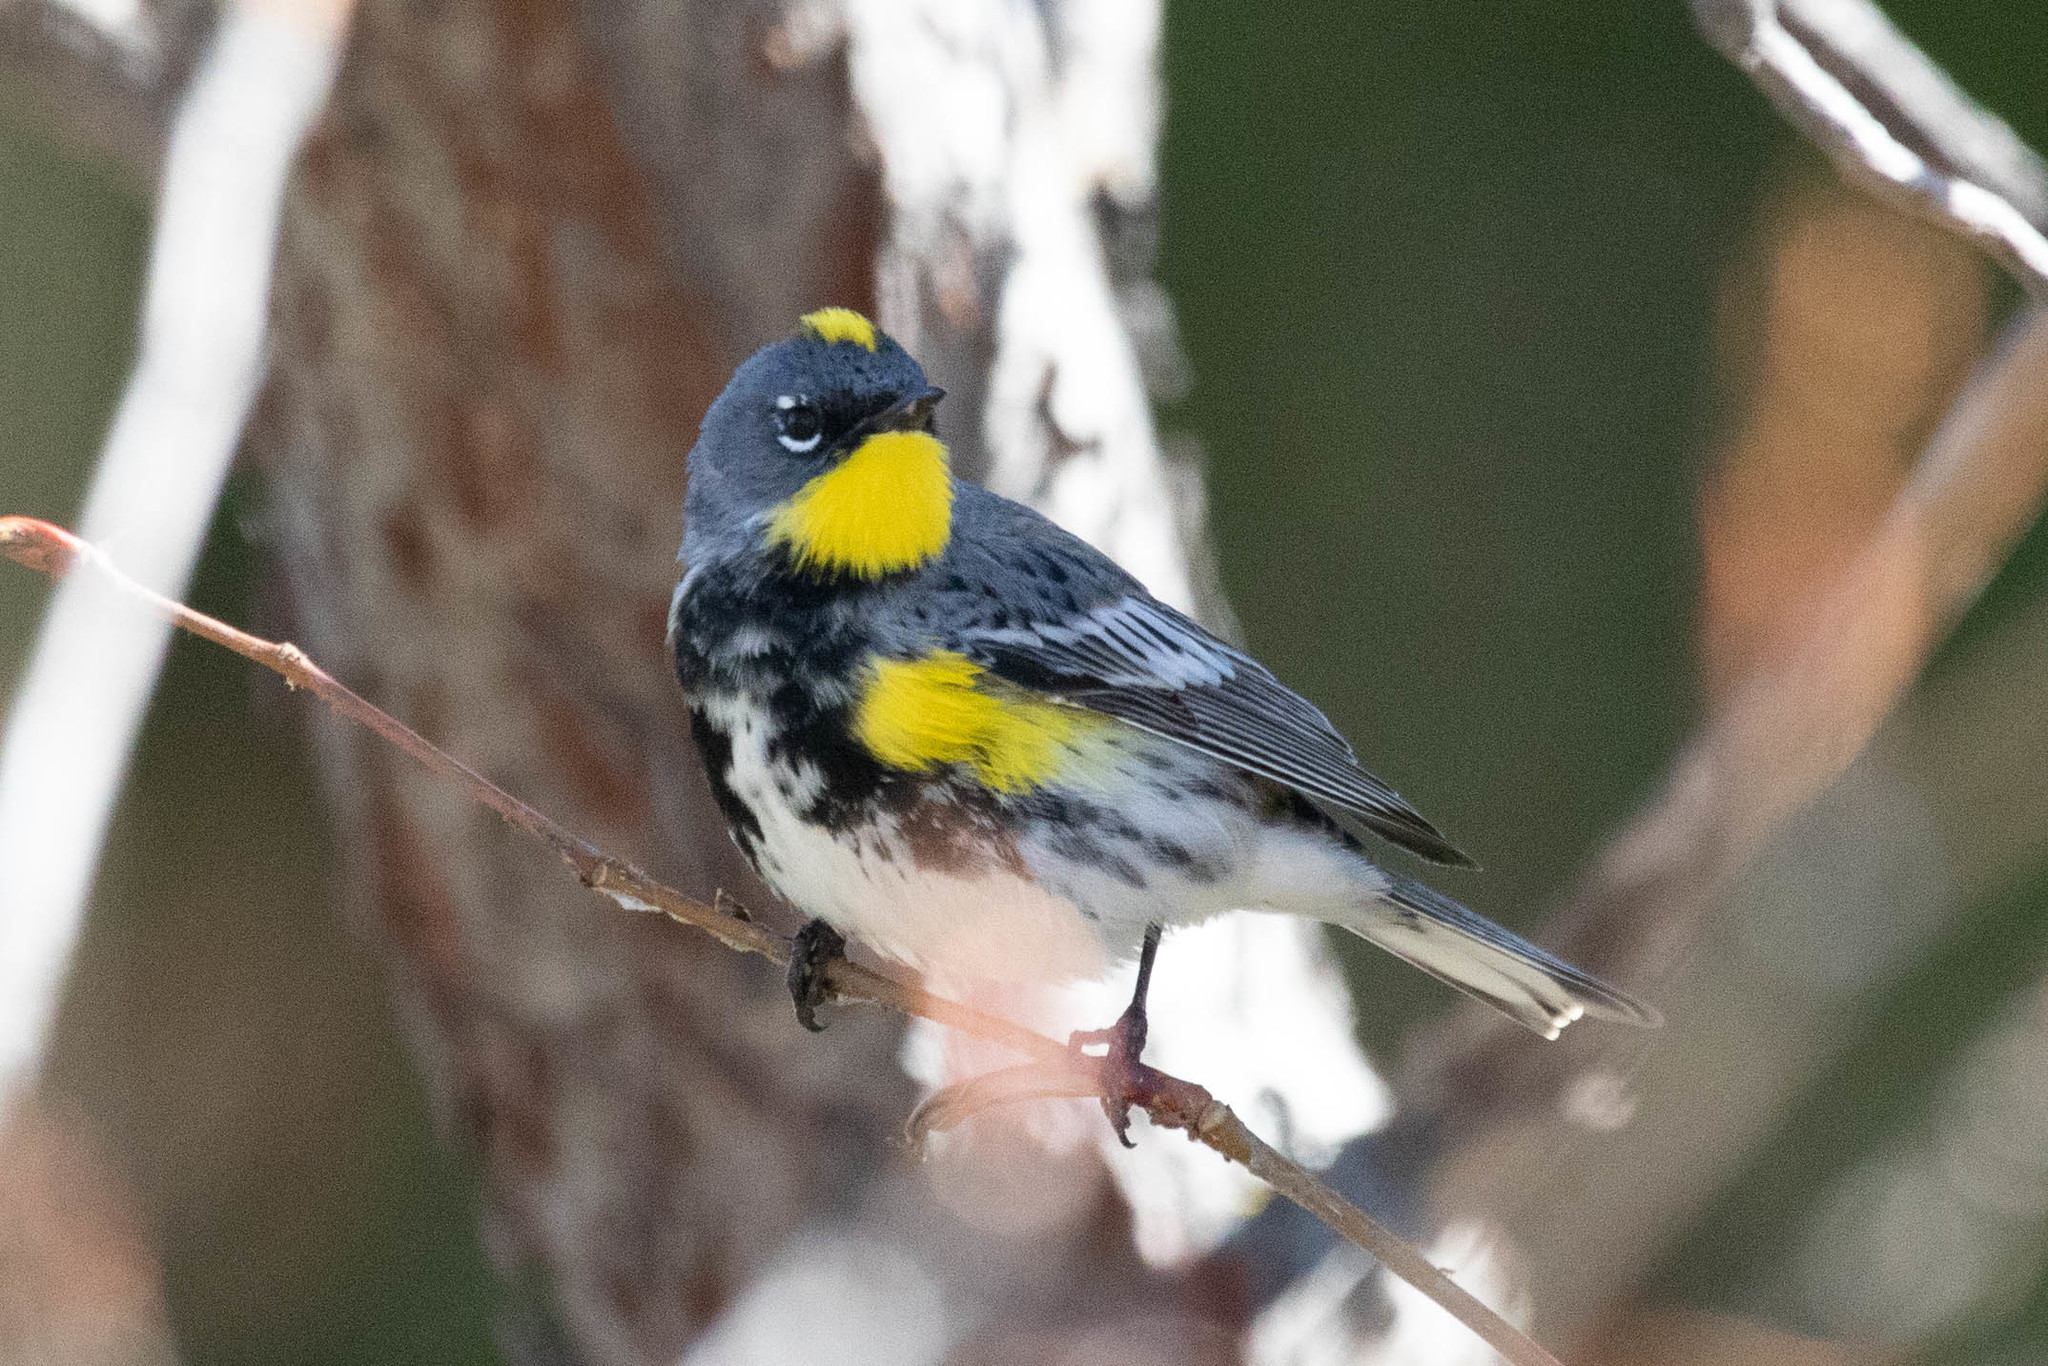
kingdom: Animalia
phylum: Chordata
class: Aves
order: Passeriformes
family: Parulidae
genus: Setophaga
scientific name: Setophaga auduboni
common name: Audubon's warbler
